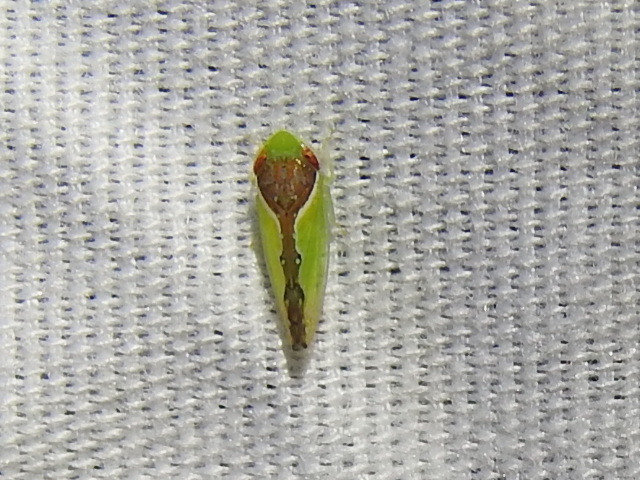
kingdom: Animalia
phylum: Arthropoda
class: Insecta
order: Hemiptera
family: Cicadellidae
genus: Omansobara ing
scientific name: Omansobara ing Omansobara palliolata
